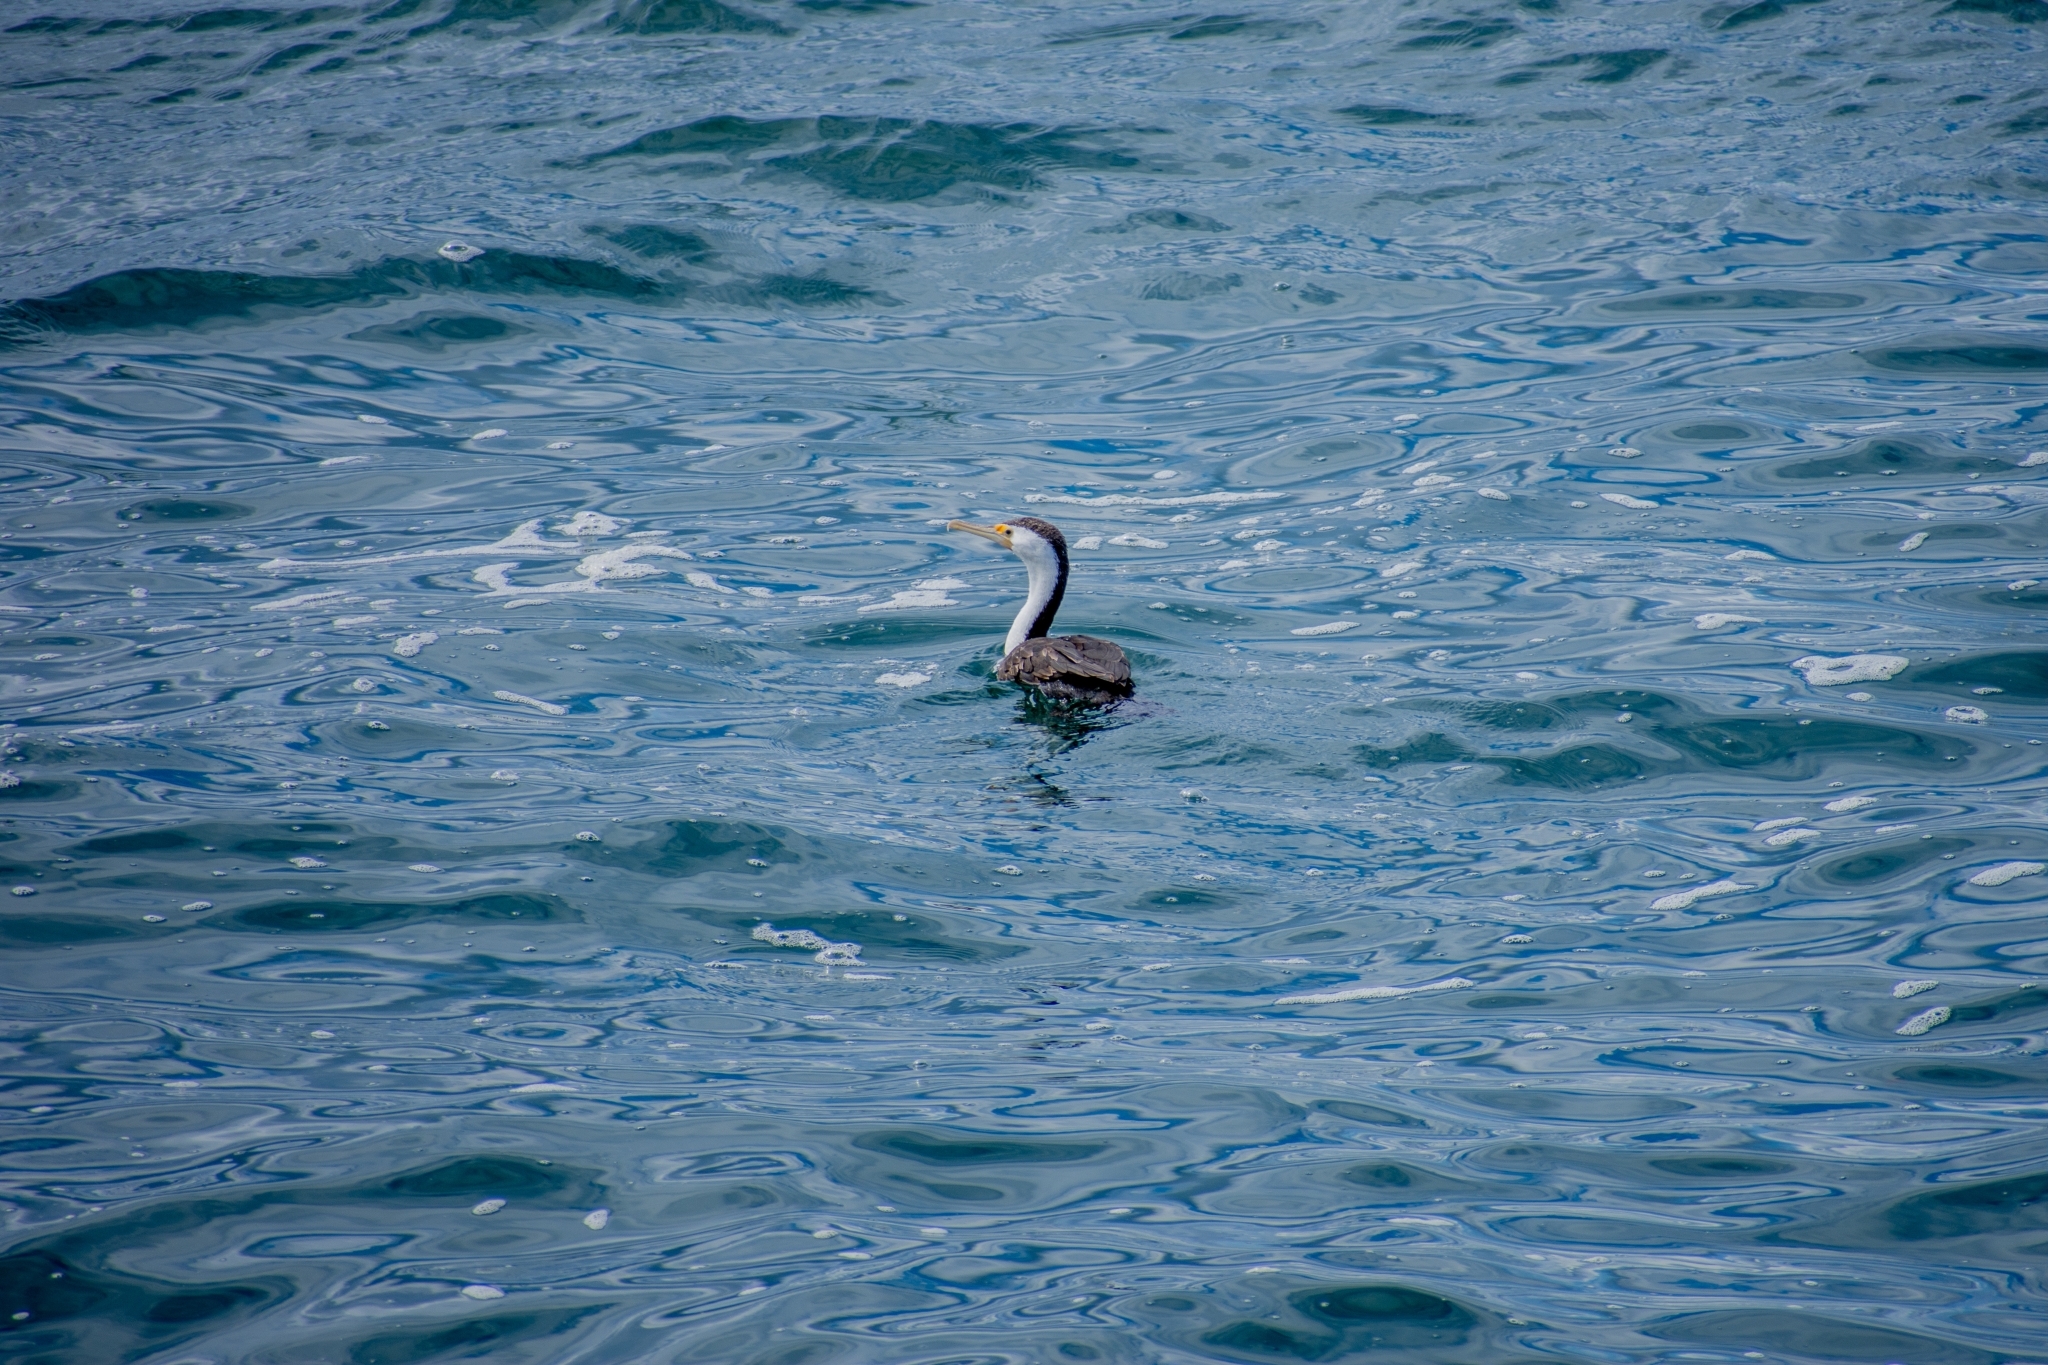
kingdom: Animalia
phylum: Chordata
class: Aves
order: Suliformes
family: Phalacrocoracidae
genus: Phalacrocorax
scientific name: Phalacrocorax varius
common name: Pied cormorant
